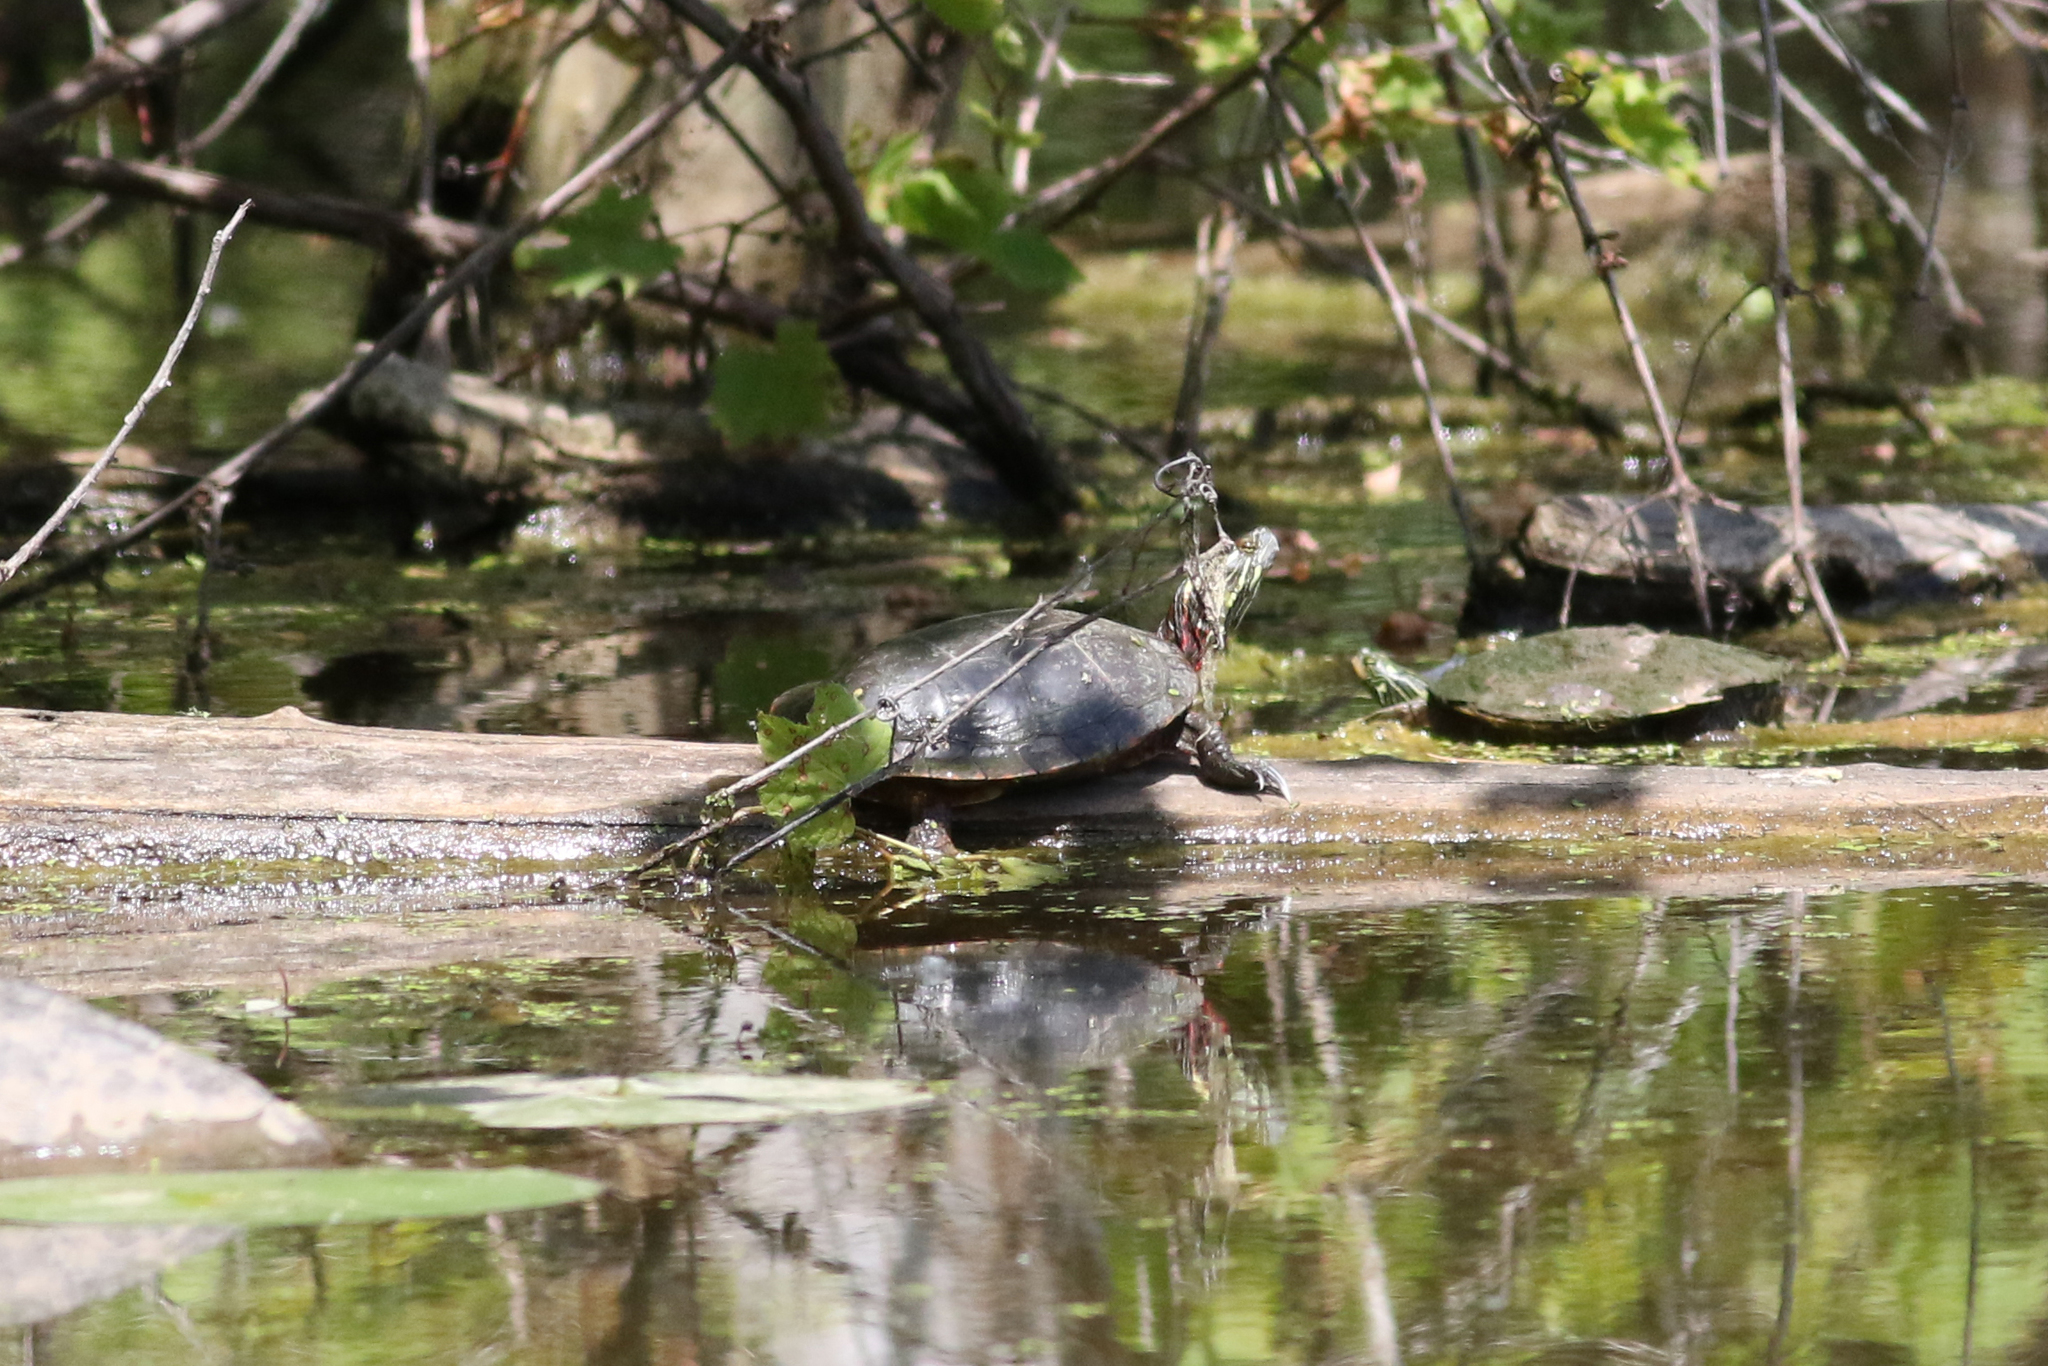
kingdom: Animalia
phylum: Chordata
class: Testudines
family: Emydidae
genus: Chrysemys
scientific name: Chrysemys picta
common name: Painted turtle
